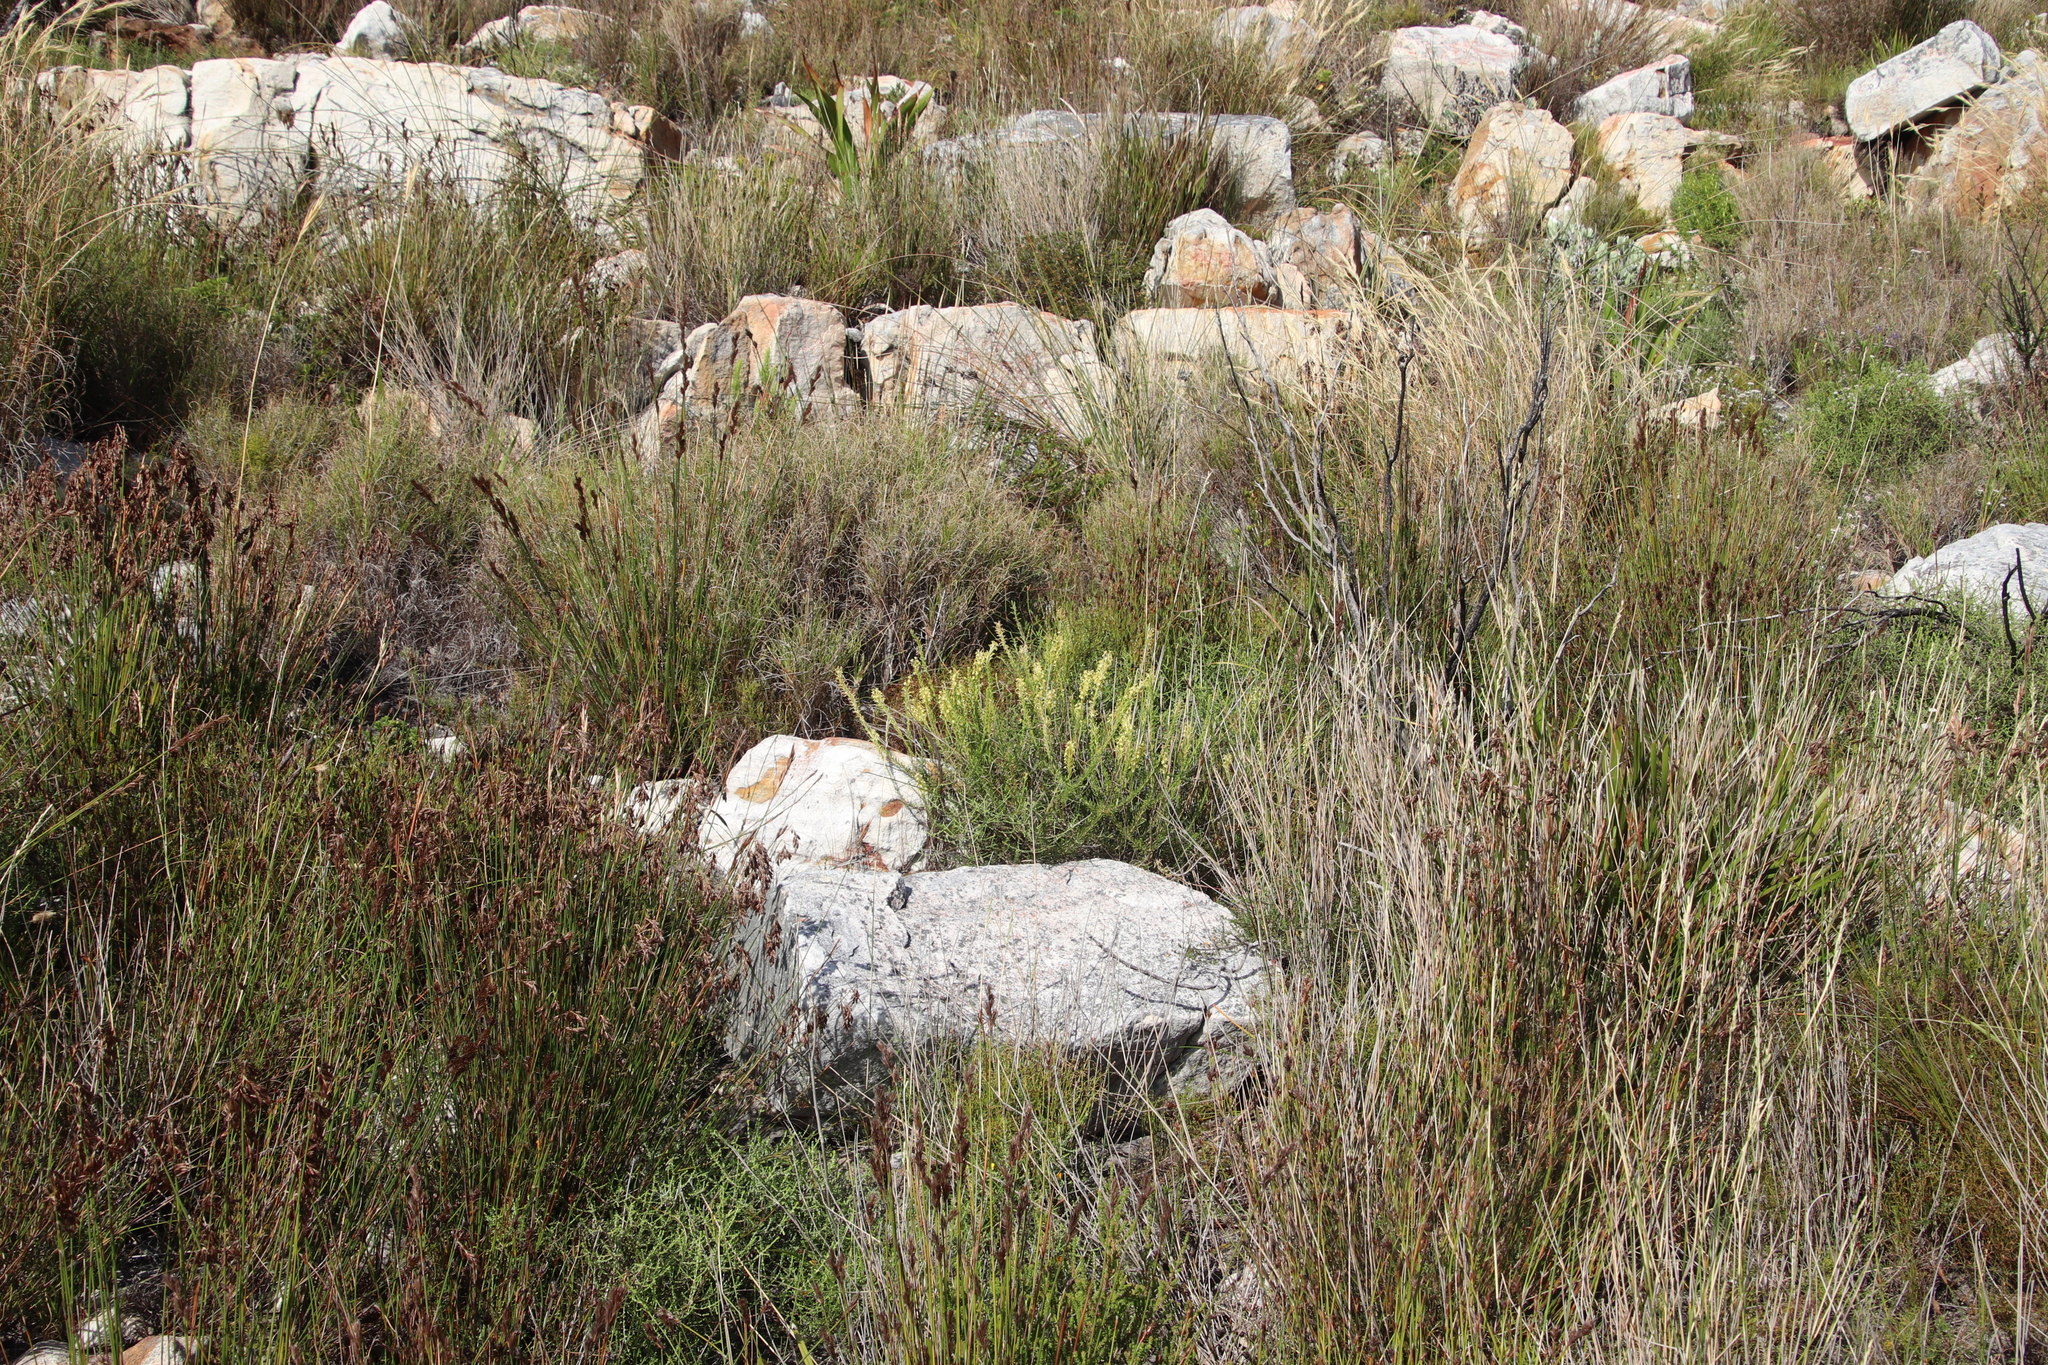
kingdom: Plantae
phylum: Tracheophyta
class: Magnoliopsida
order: Lamiales
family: Scrophulariaceae
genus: Microdon
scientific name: Microdon dubius
